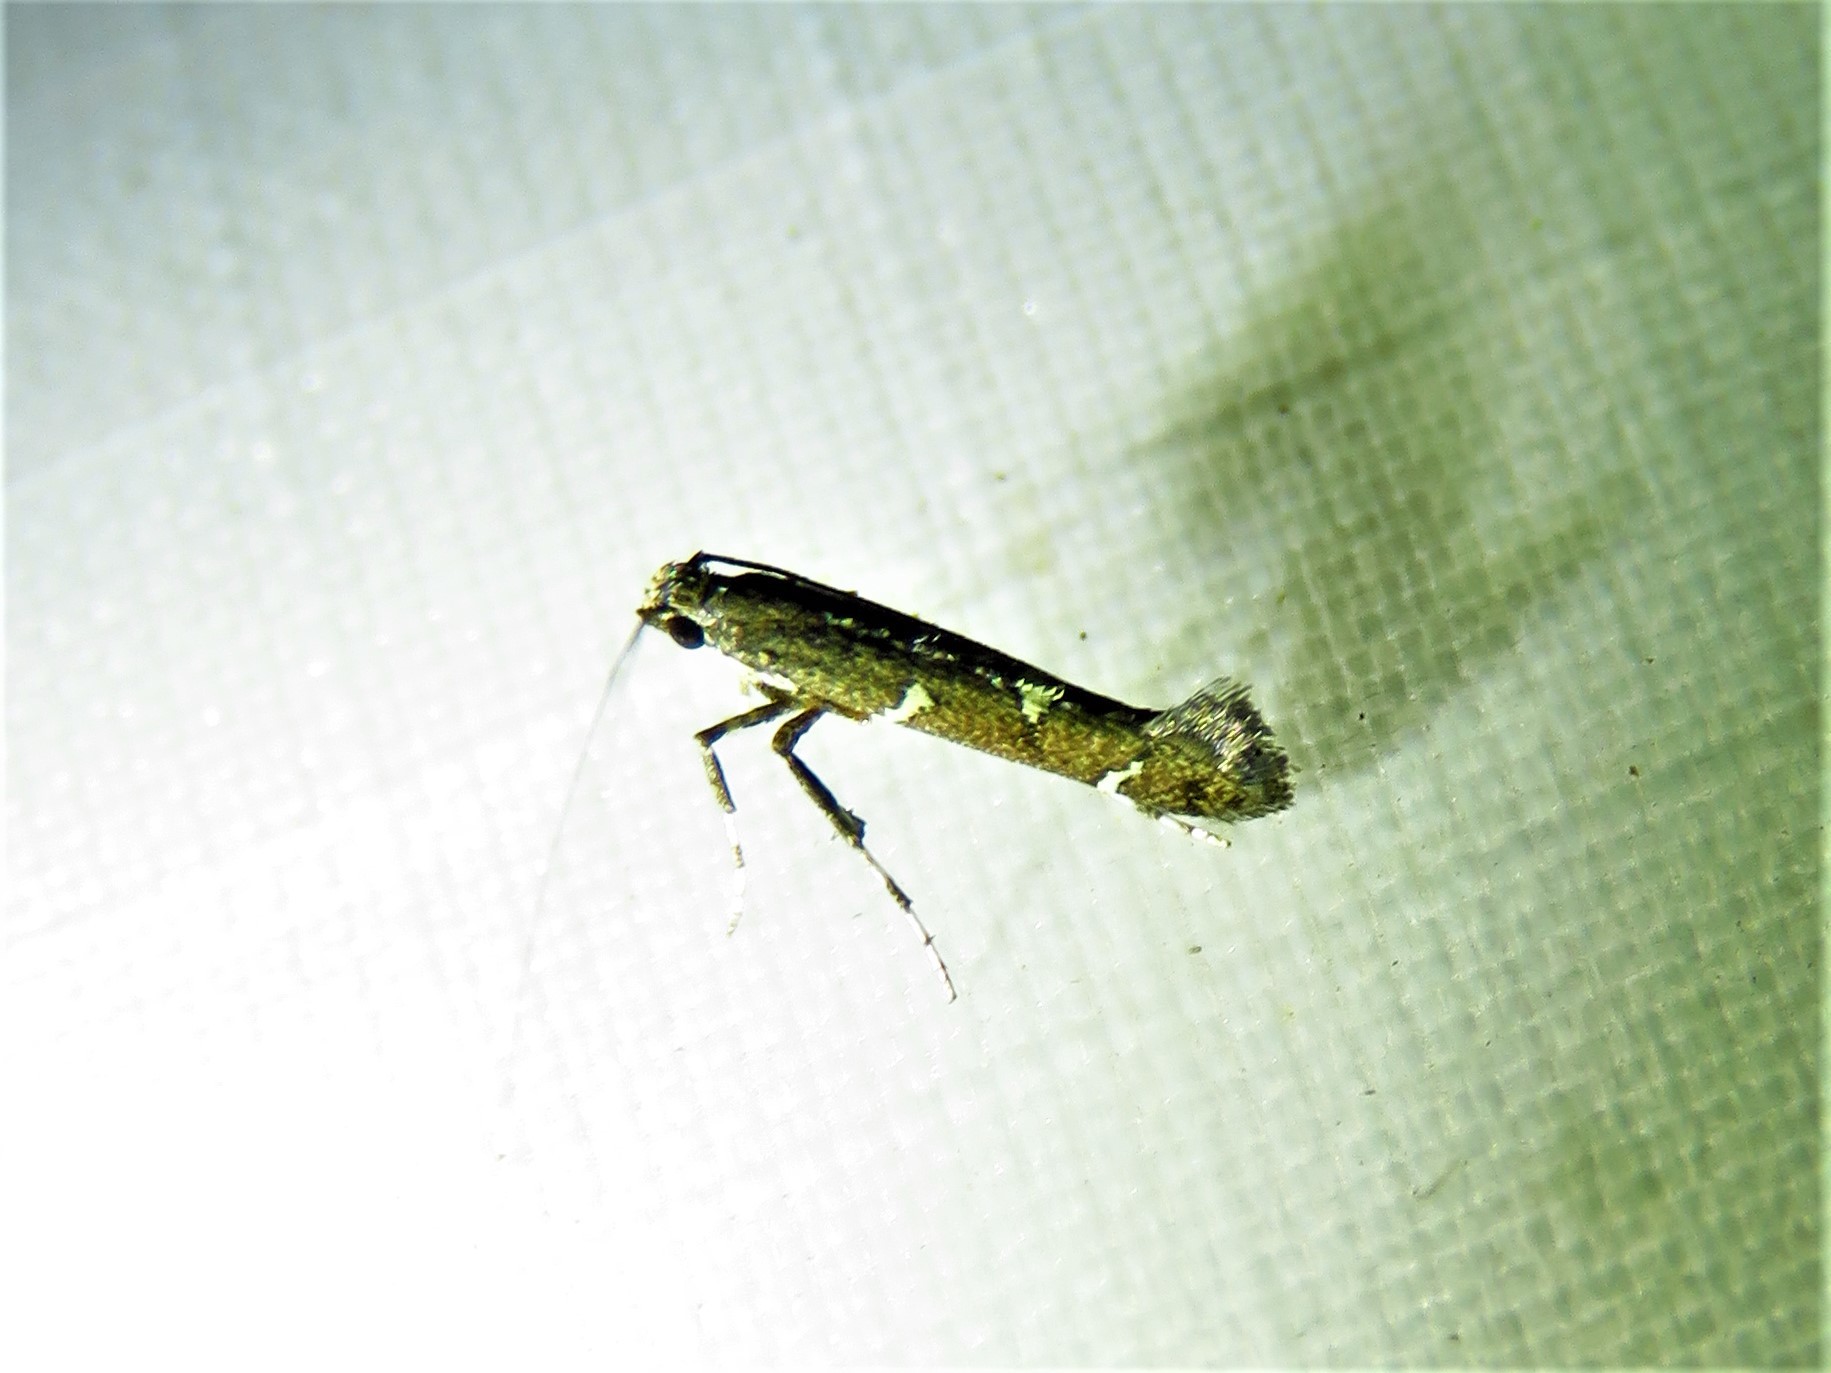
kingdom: Animalia
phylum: Arthropoda
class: Insecta
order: Lepidoptera
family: Gracillariidae
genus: Caloptilia
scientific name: Caloptilia triadicae
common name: Tallow leaf roller
